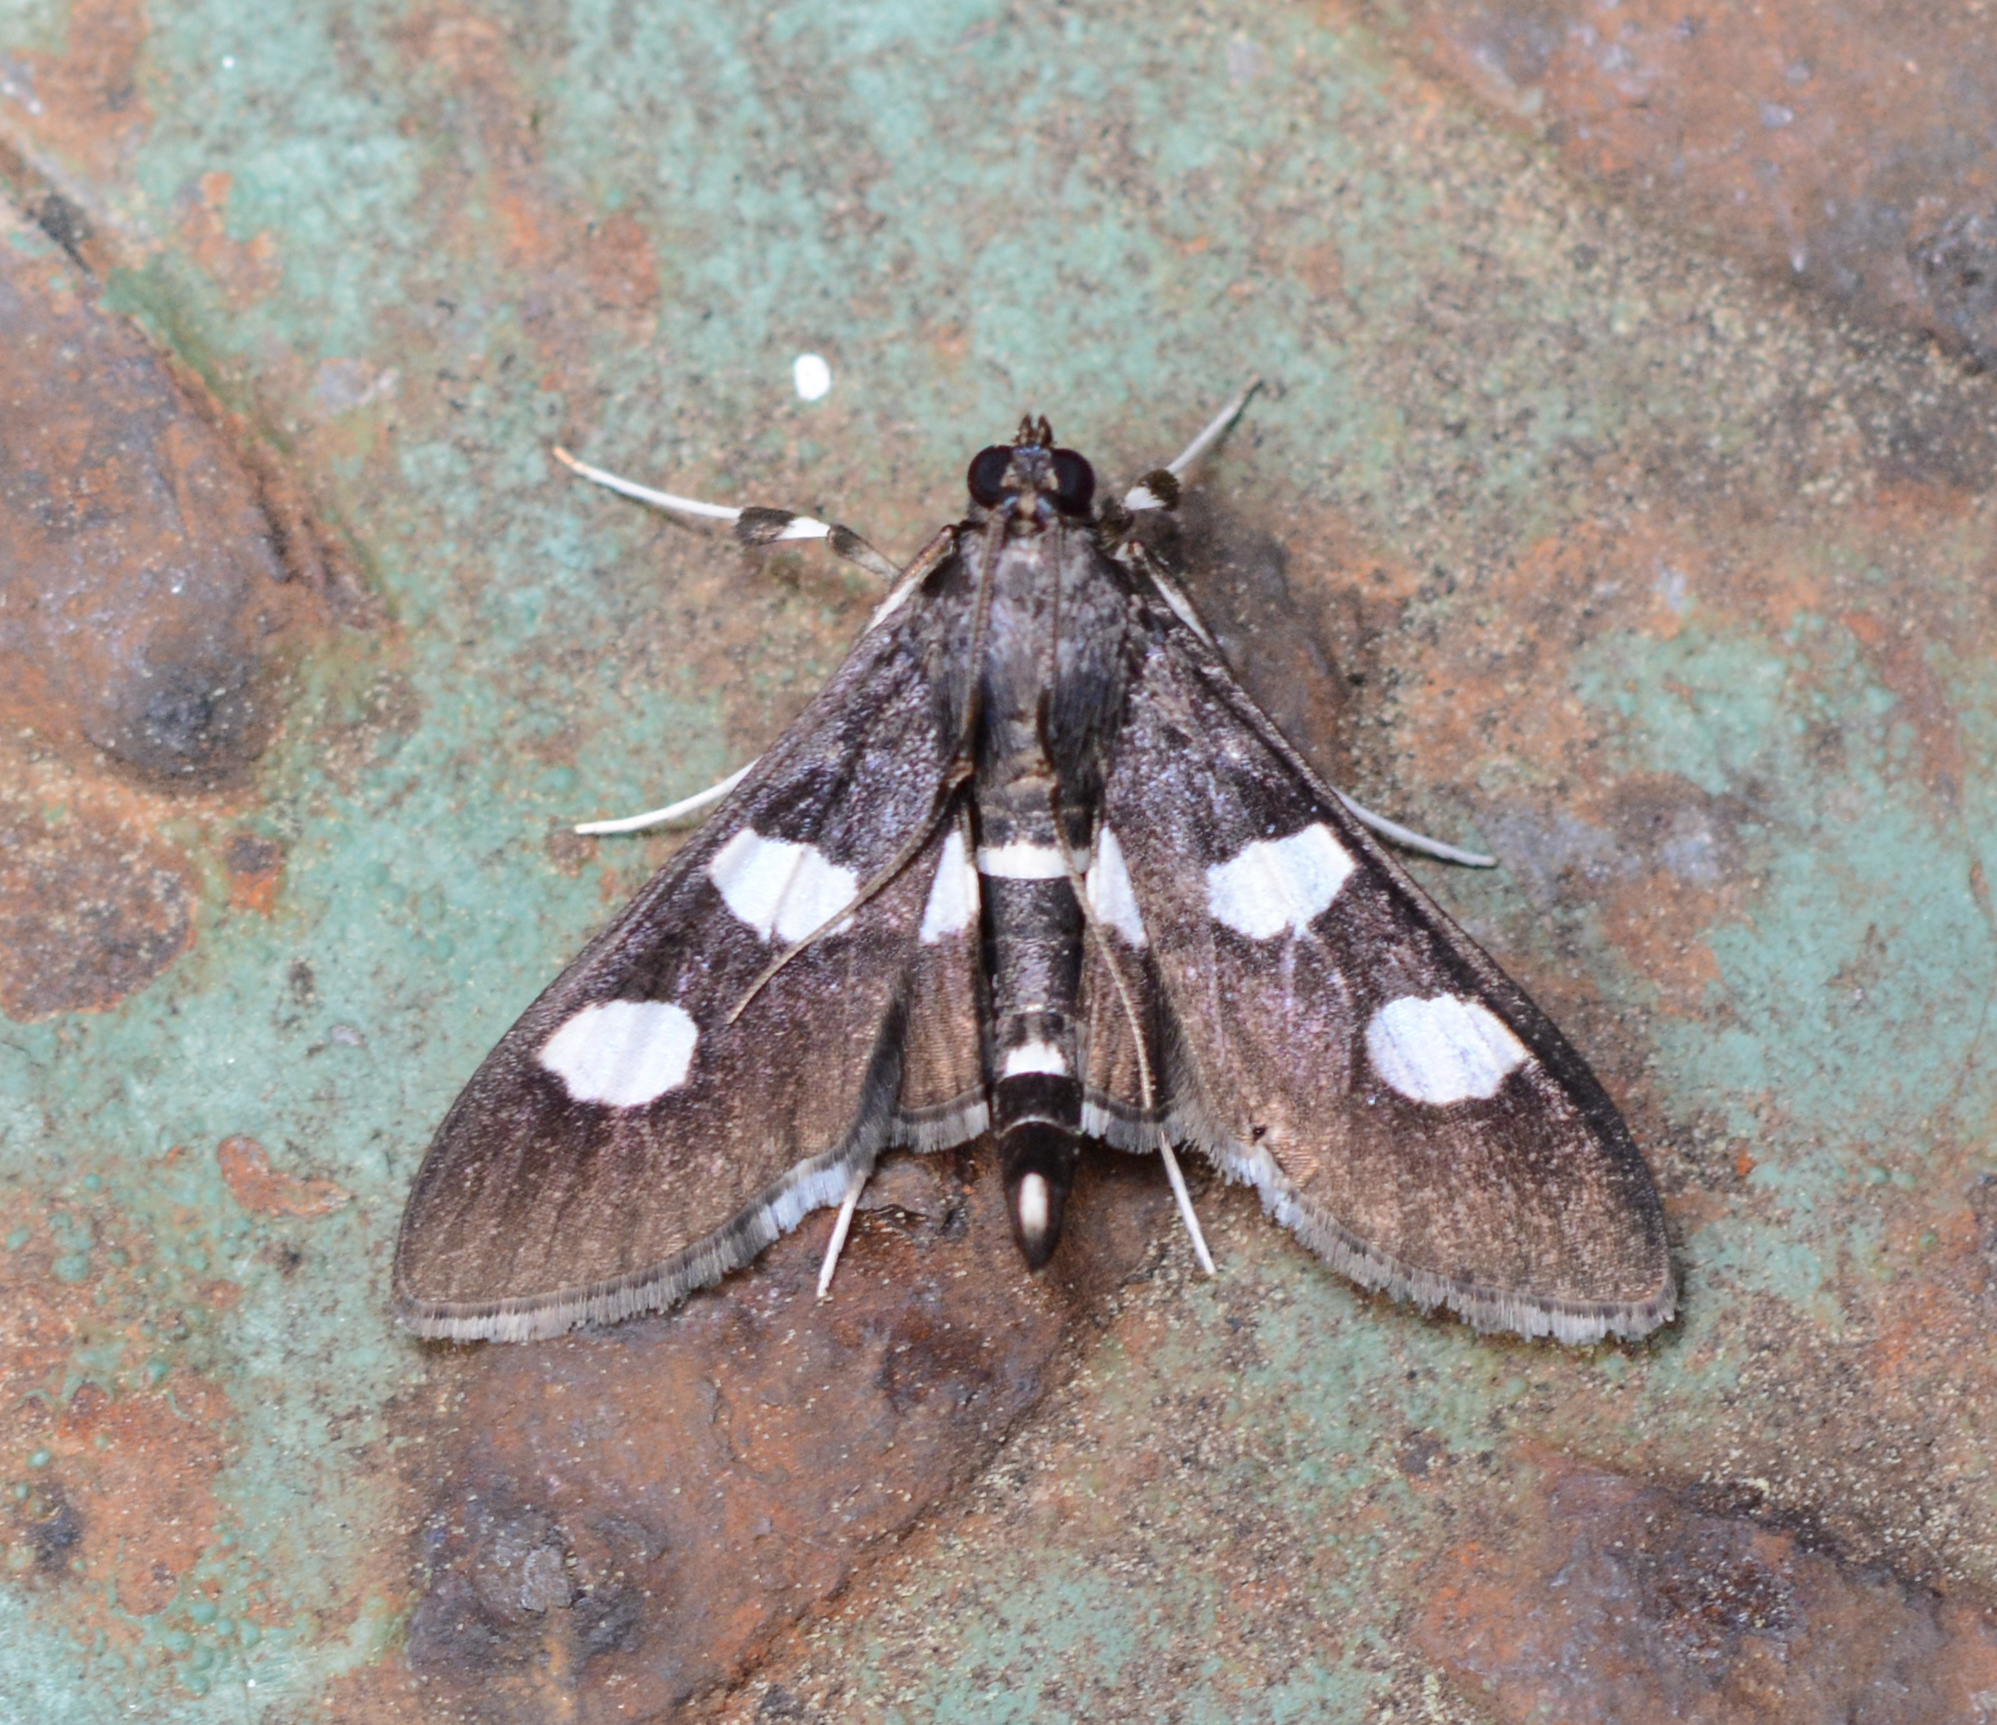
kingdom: Animalia
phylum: Arthropoda
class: Insecta
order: Lepidoptera
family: Crambidae
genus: Desmia
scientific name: Desmia funeralis
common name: Grape leaf folder moth
